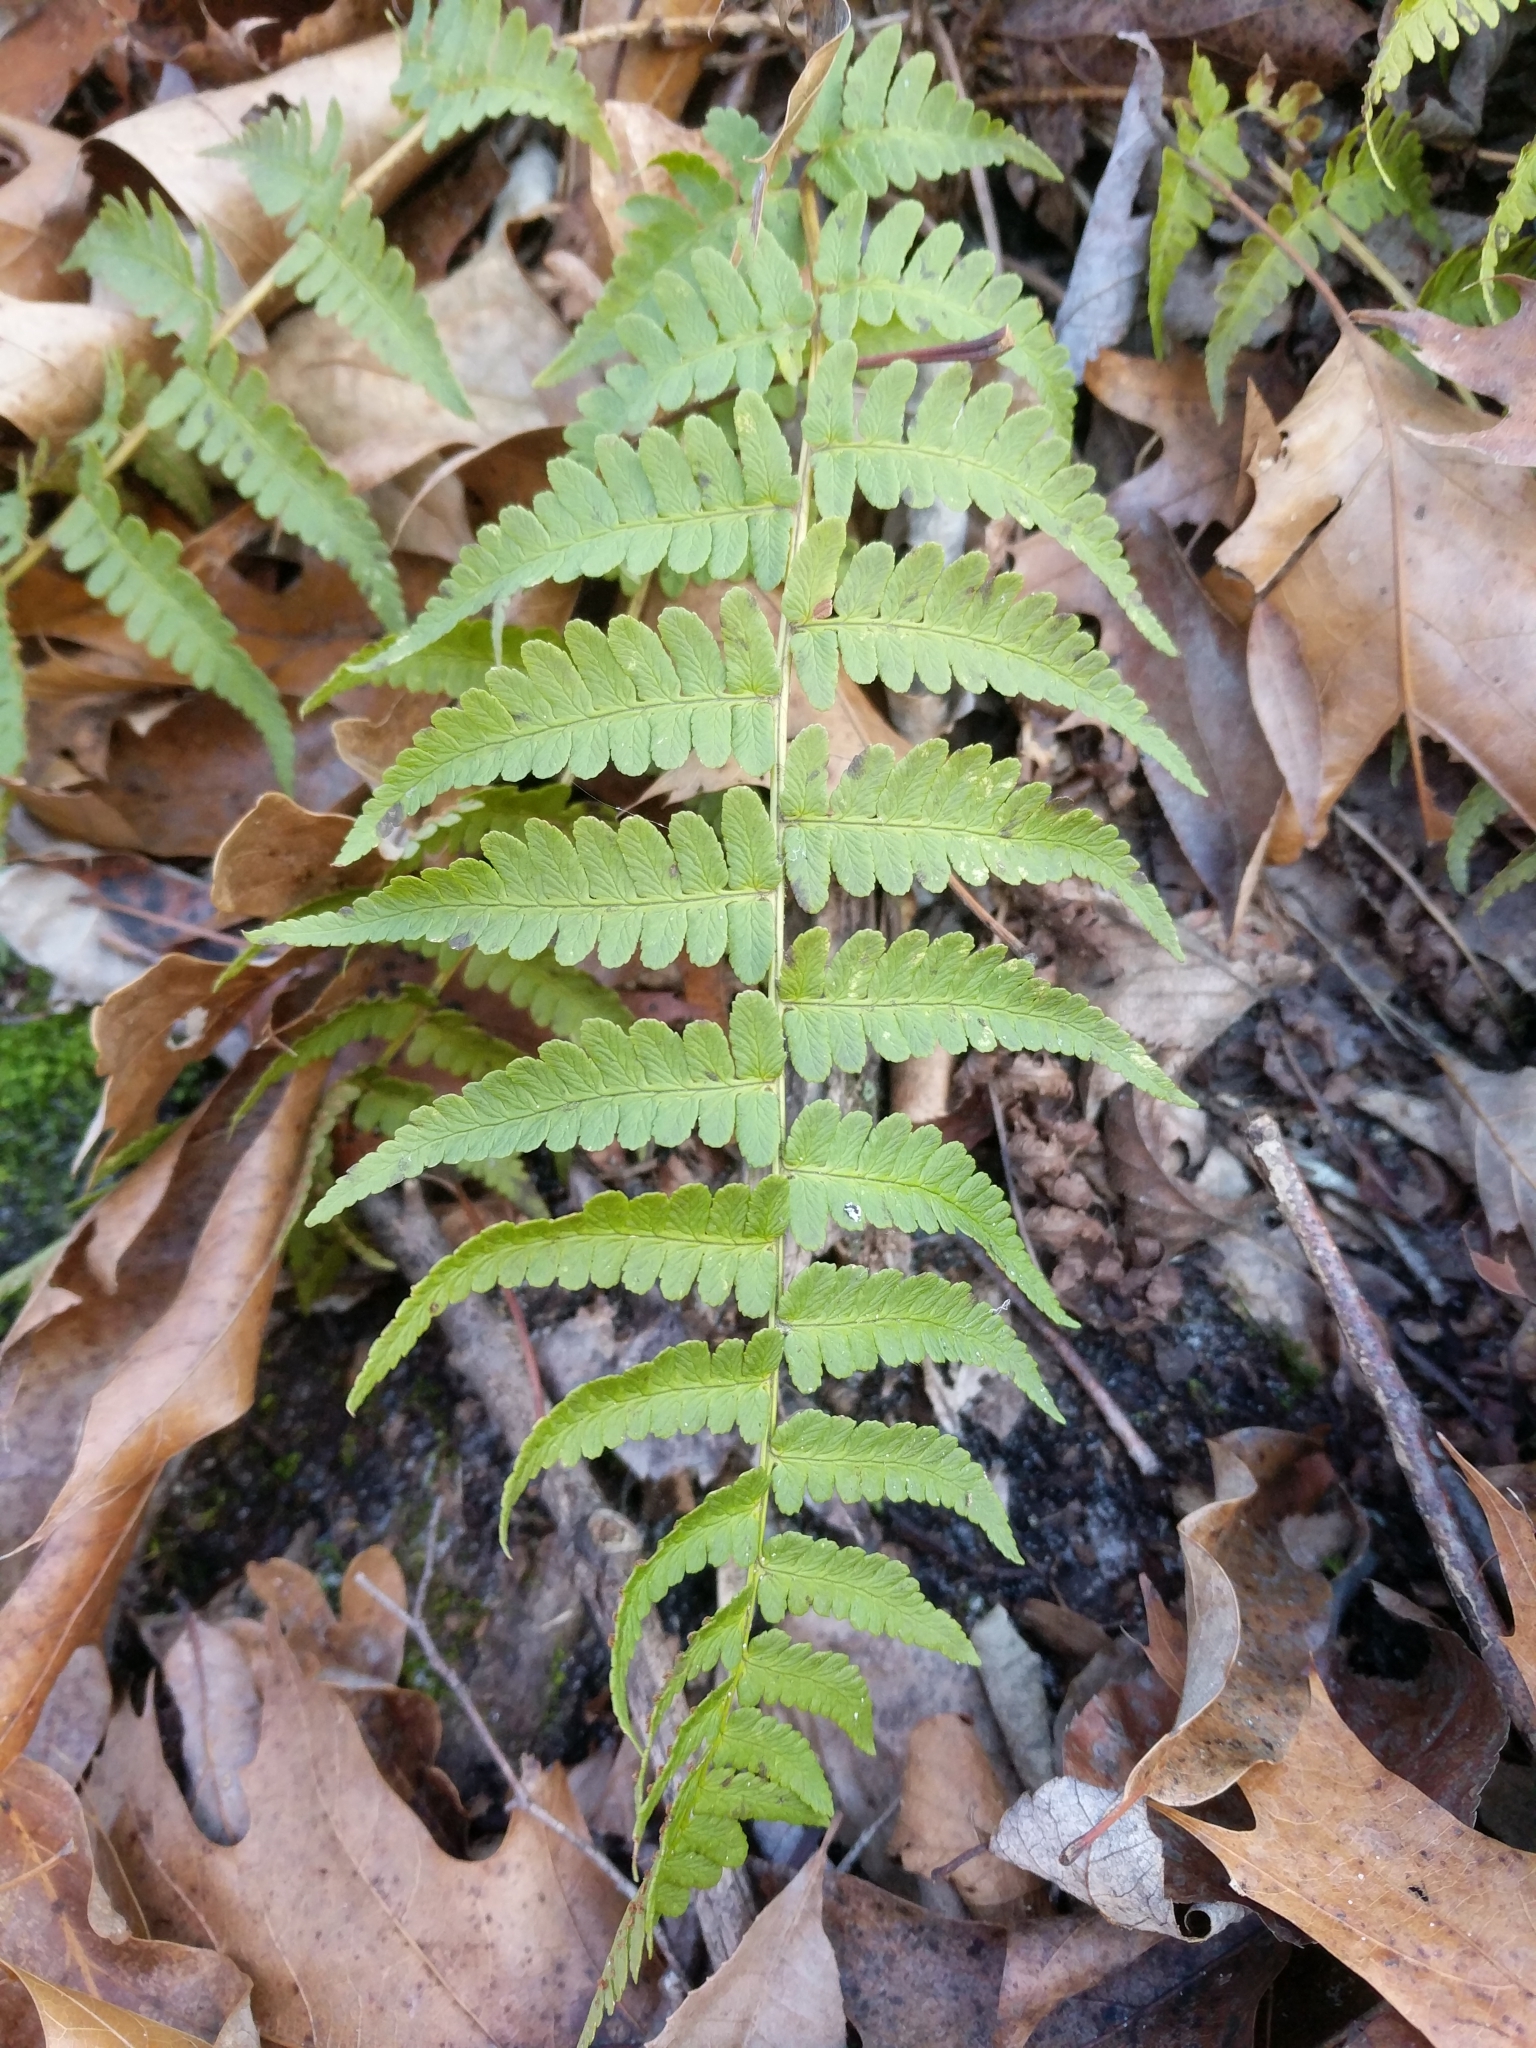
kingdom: Plantae
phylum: Tracheophyta
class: Polypodiopsida
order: Polypodiales
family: Dryopteridaceae
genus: Dryopteris
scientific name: Dryopteris marginalis
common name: Marginal wood fern
